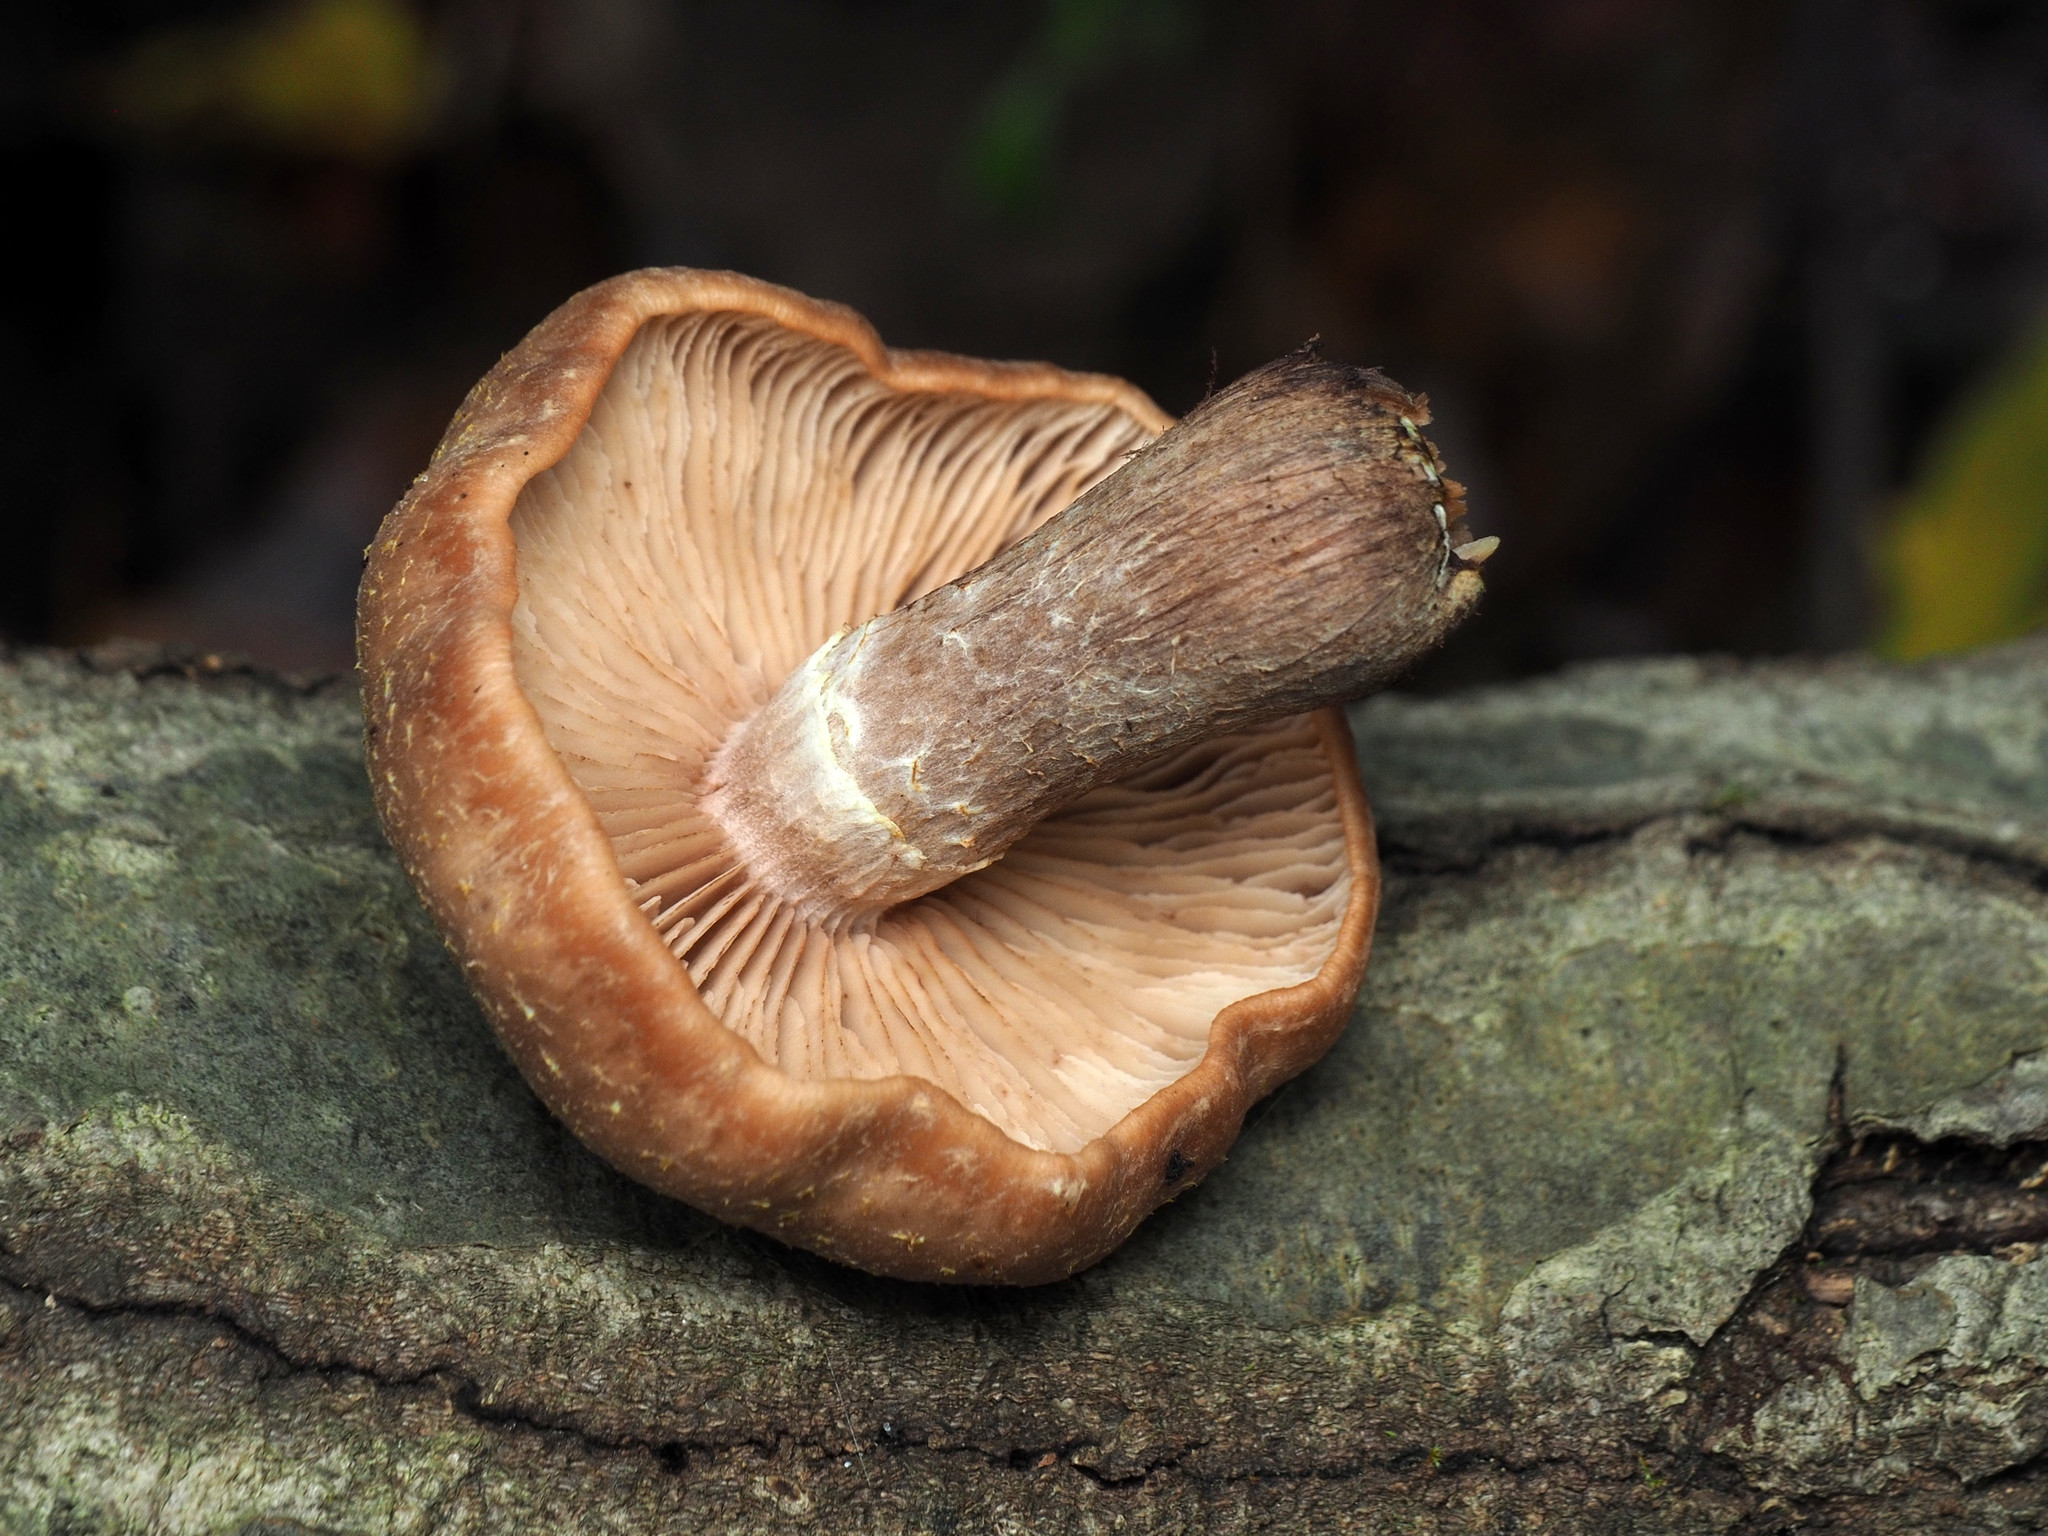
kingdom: Fungi
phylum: Basidiomycota
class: Agaricomycetes
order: Agaricales
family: Physalacriaceae
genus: Armillaria
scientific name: Armillaria gallica
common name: Bulbous honey fungus
